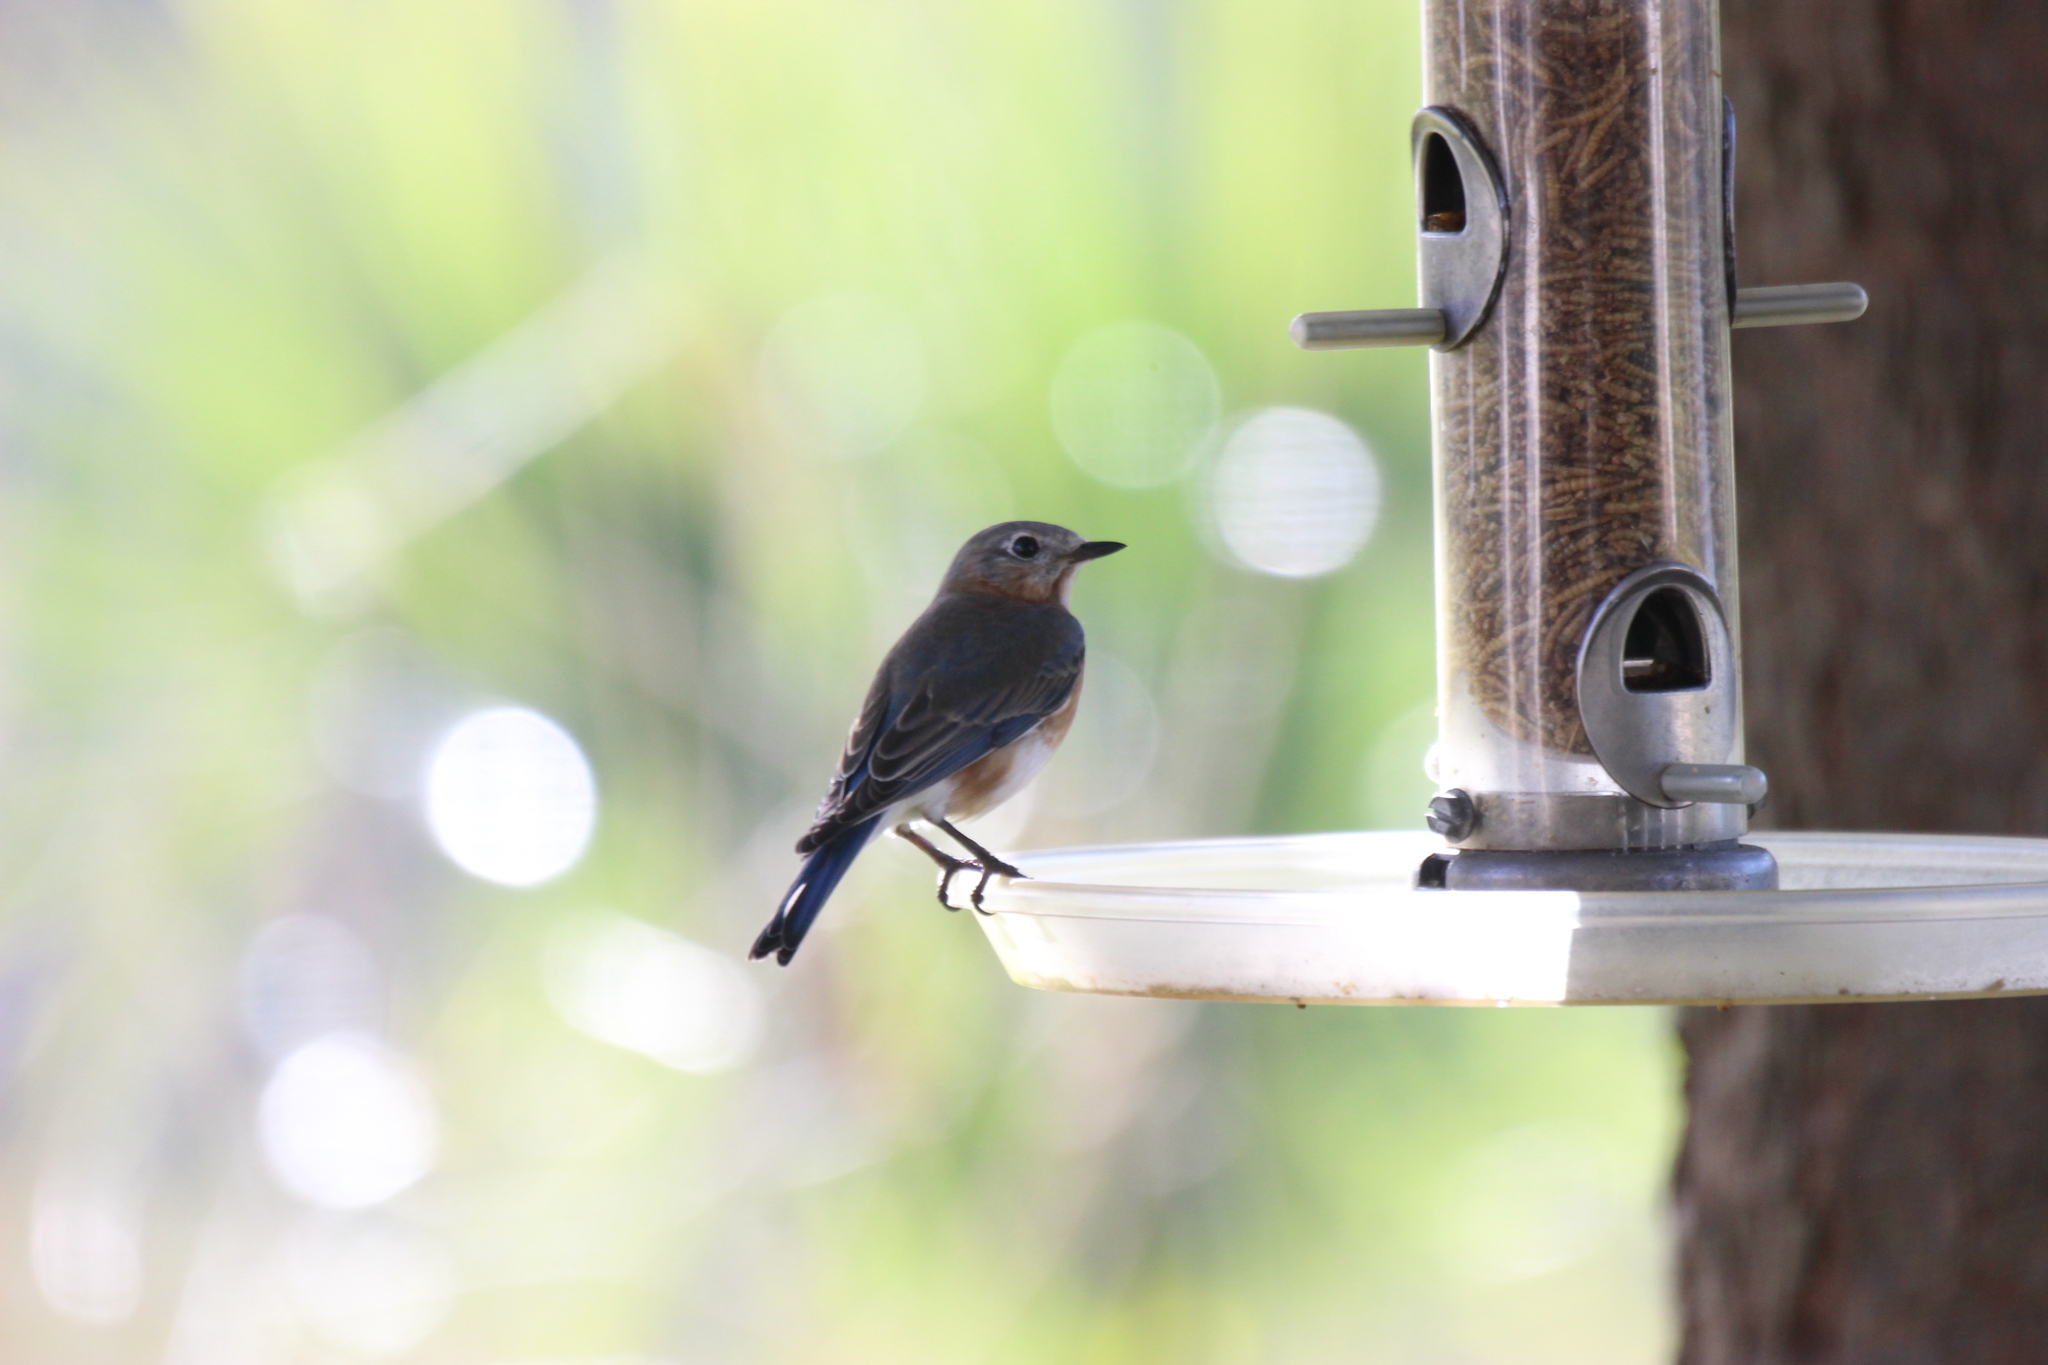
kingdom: Animalia
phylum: Chordata
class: Aves
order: Passeriformes
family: Turdidae
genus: Sialia
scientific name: Sialia sialis
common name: Eastern bluebird
